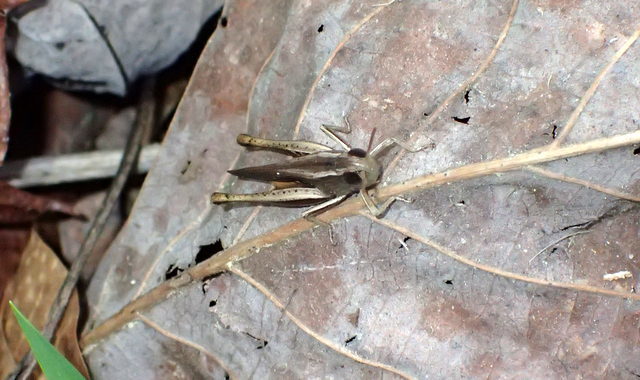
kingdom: Animalia
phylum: Arthropoda
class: Insecta
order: Orthoptera
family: Acrididae
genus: Amblytropidia
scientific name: Amblytropidia mysteca
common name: Brown winter grasshopper
